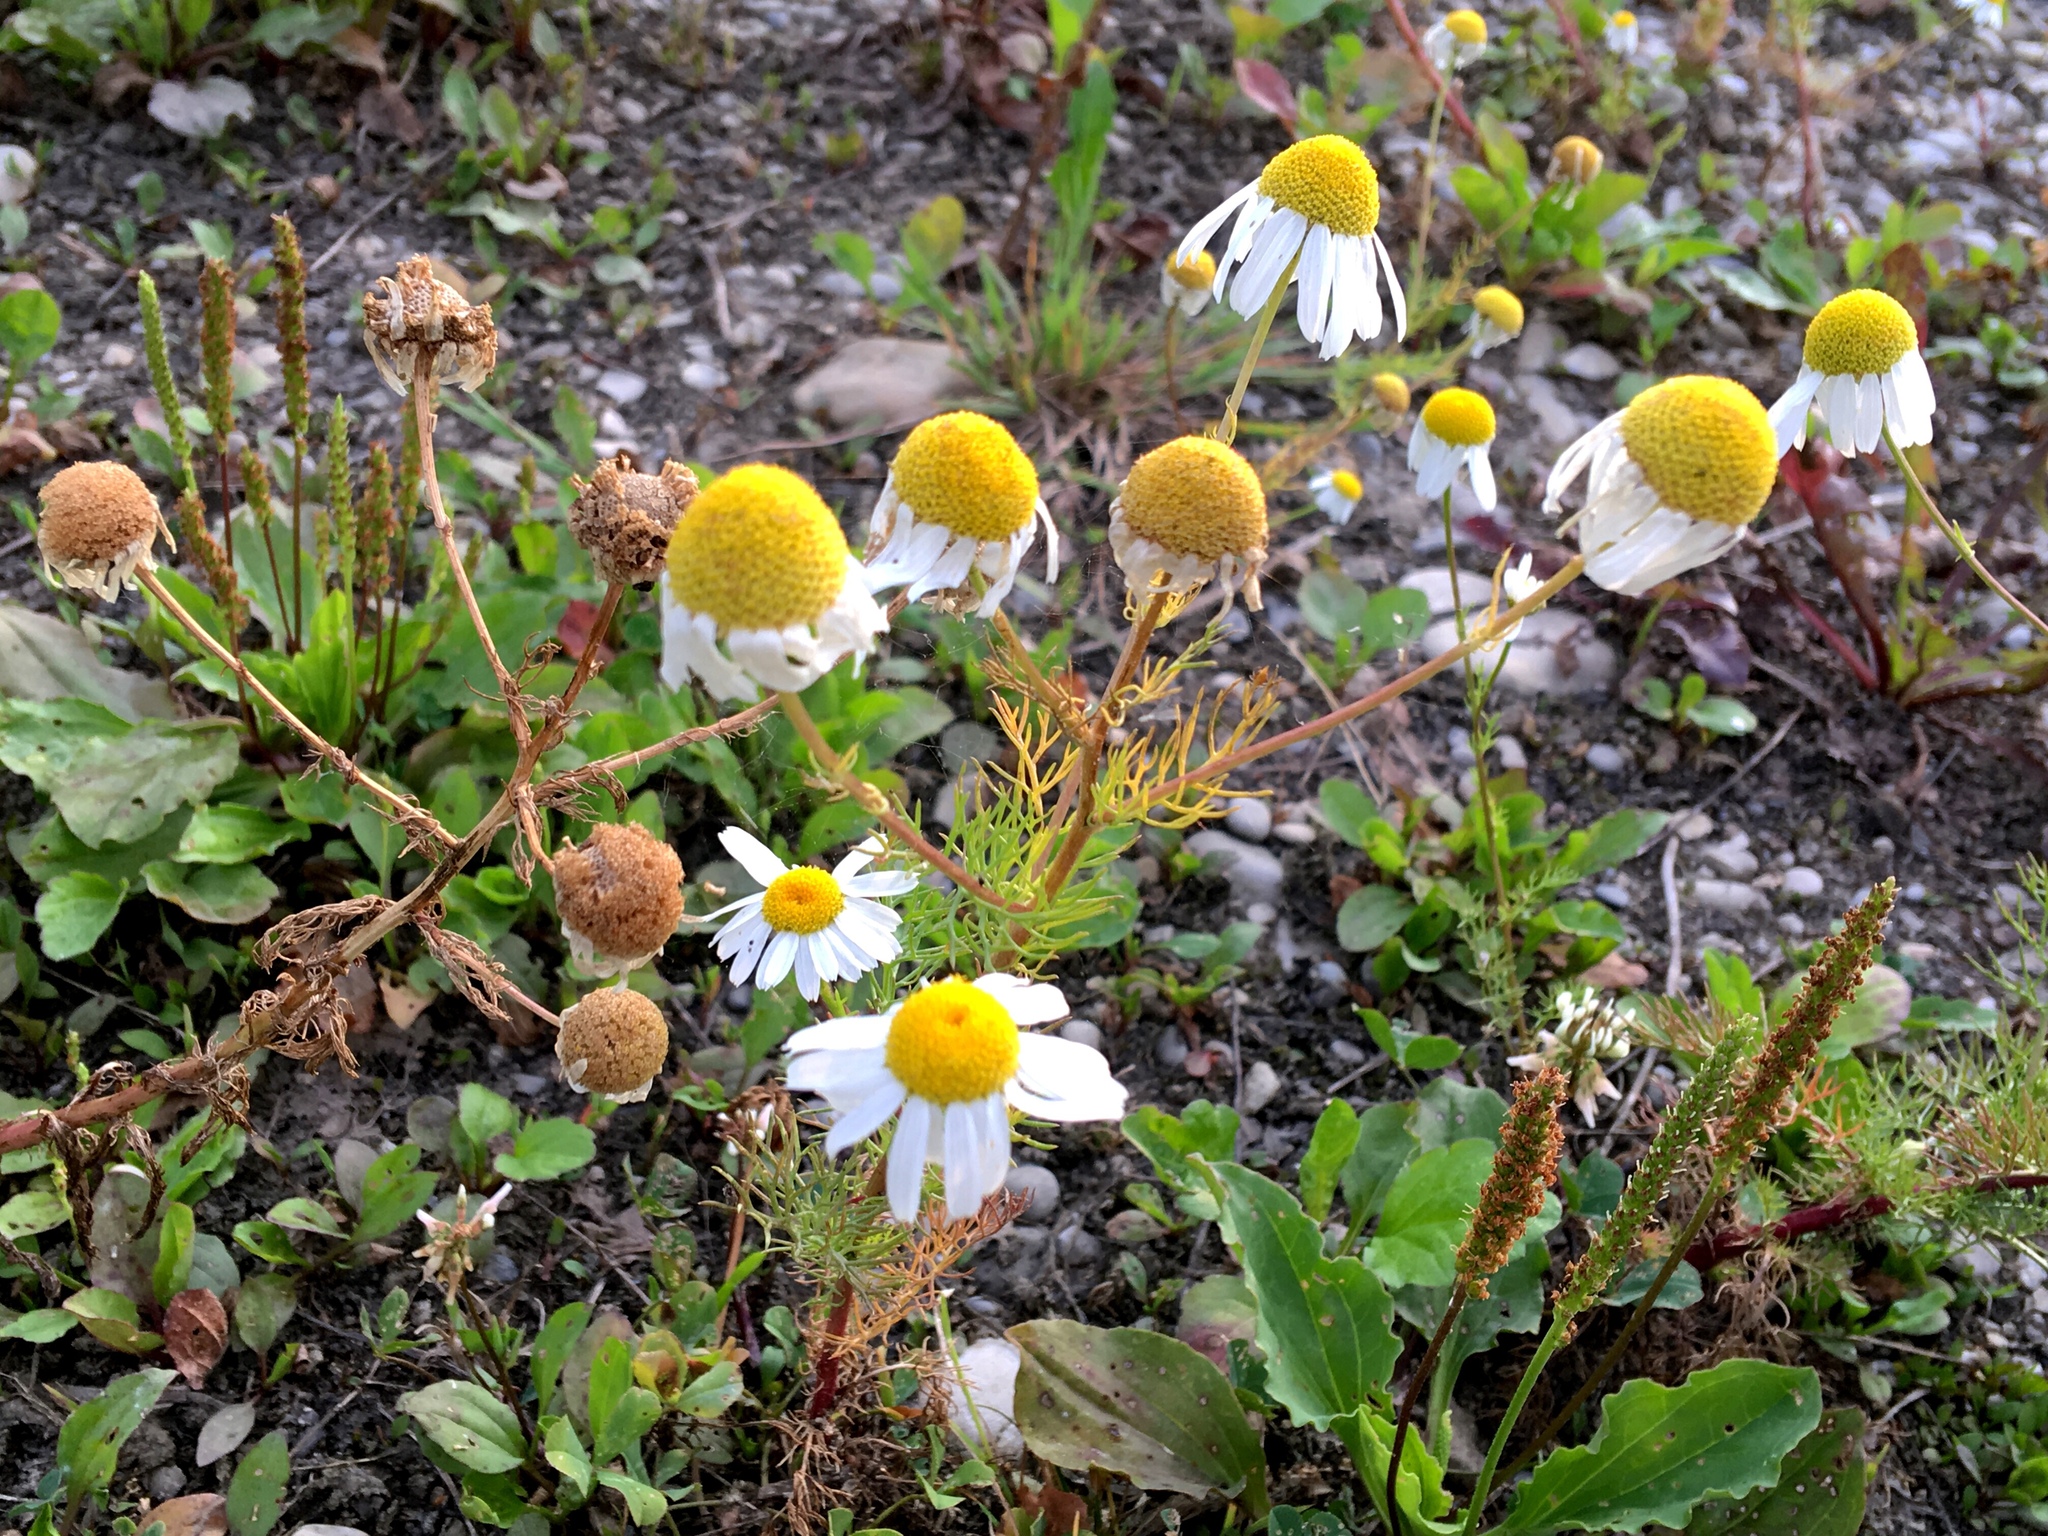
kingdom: Plantae
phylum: Tracheophyta
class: Magnoliopsida
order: Asterales
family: Asteraceae
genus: Tripleurospermum
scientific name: Tripleurospermum inodorum
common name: Scentless mayweed
